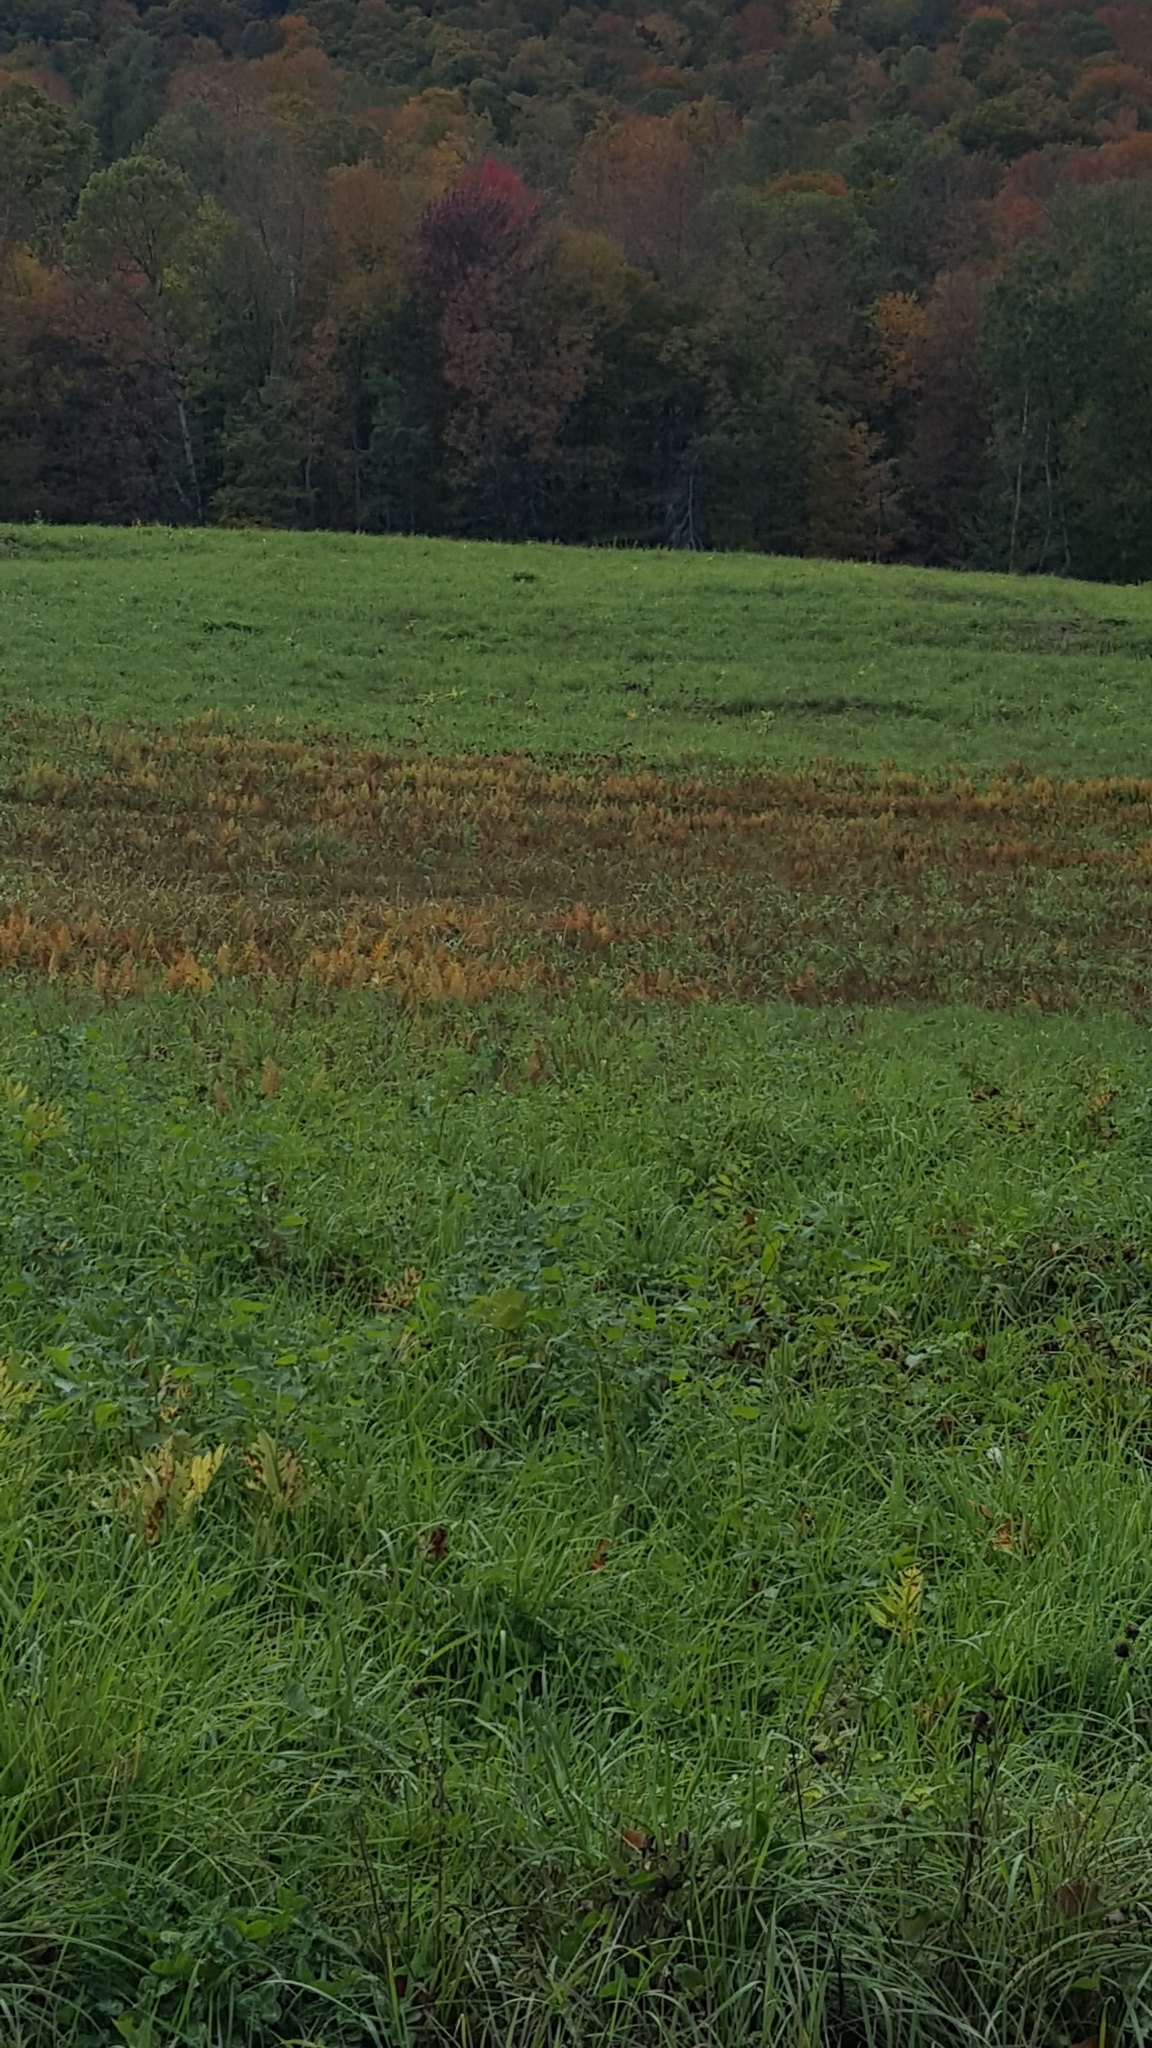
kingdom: Plantae
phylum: Tracheophyta
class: Polypodiopsida
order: Polypodiales
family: Onocleaceae
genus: Onoclea
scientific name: Onoclea sensibilis
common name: Sensitive fern
